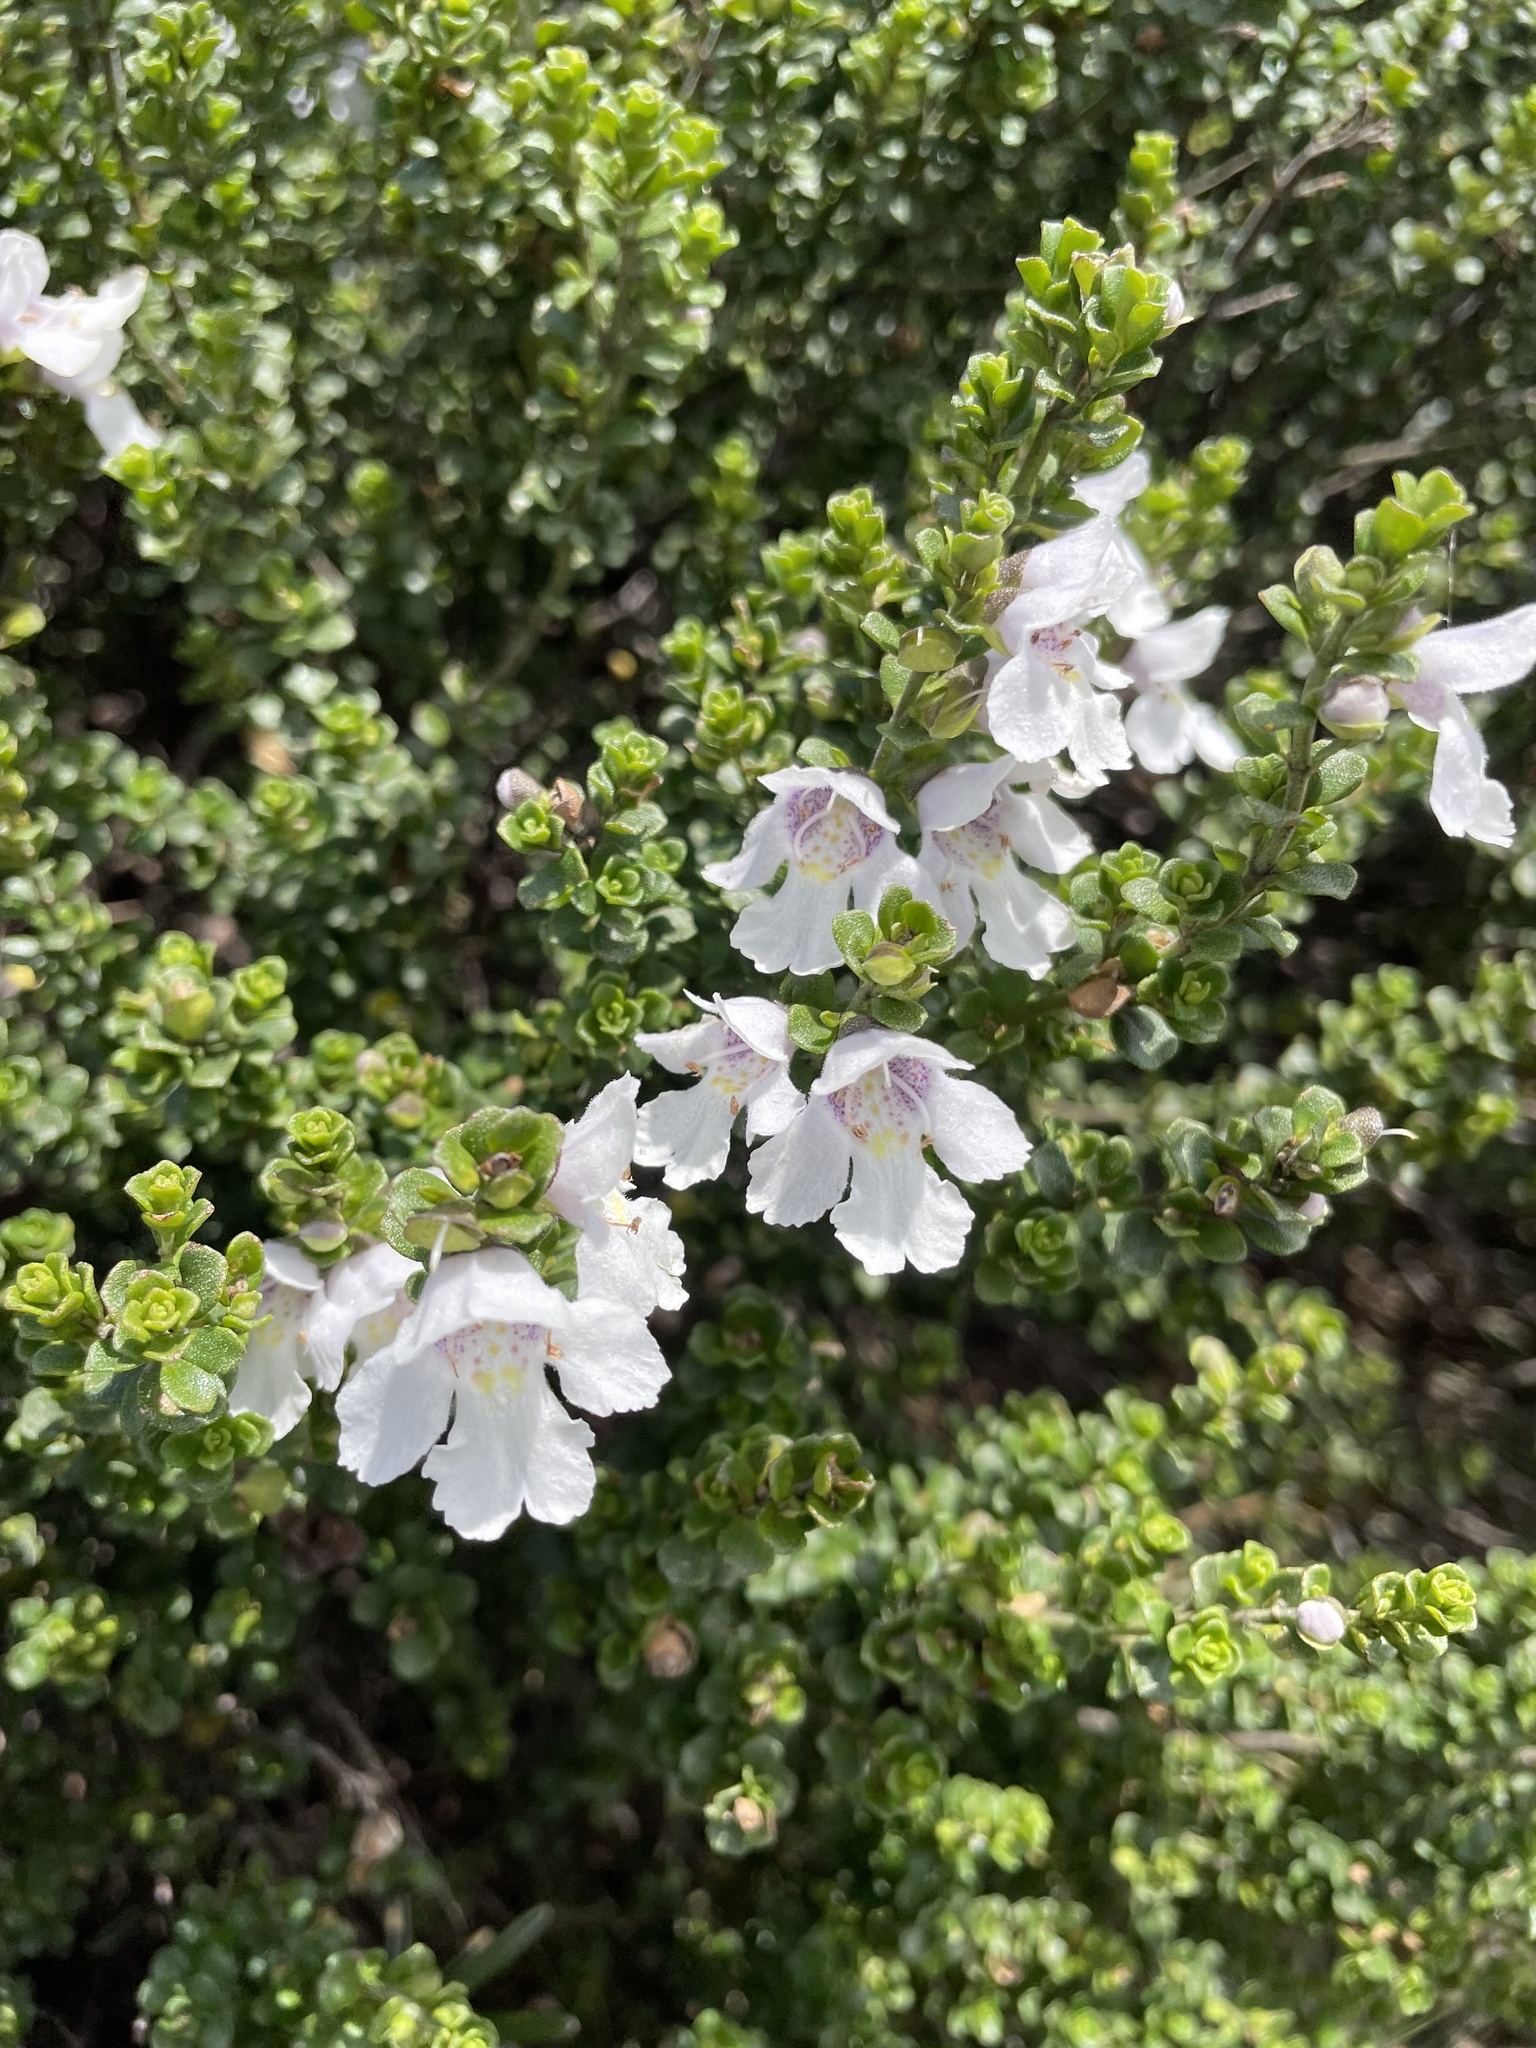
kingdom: Plantae
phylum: Tracheophyta
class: Magnoliopsida
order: Lamiales
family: Lamiaceae
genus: Prostanthera
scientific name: Prostanthera cuneata
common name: Alpine mintbush
